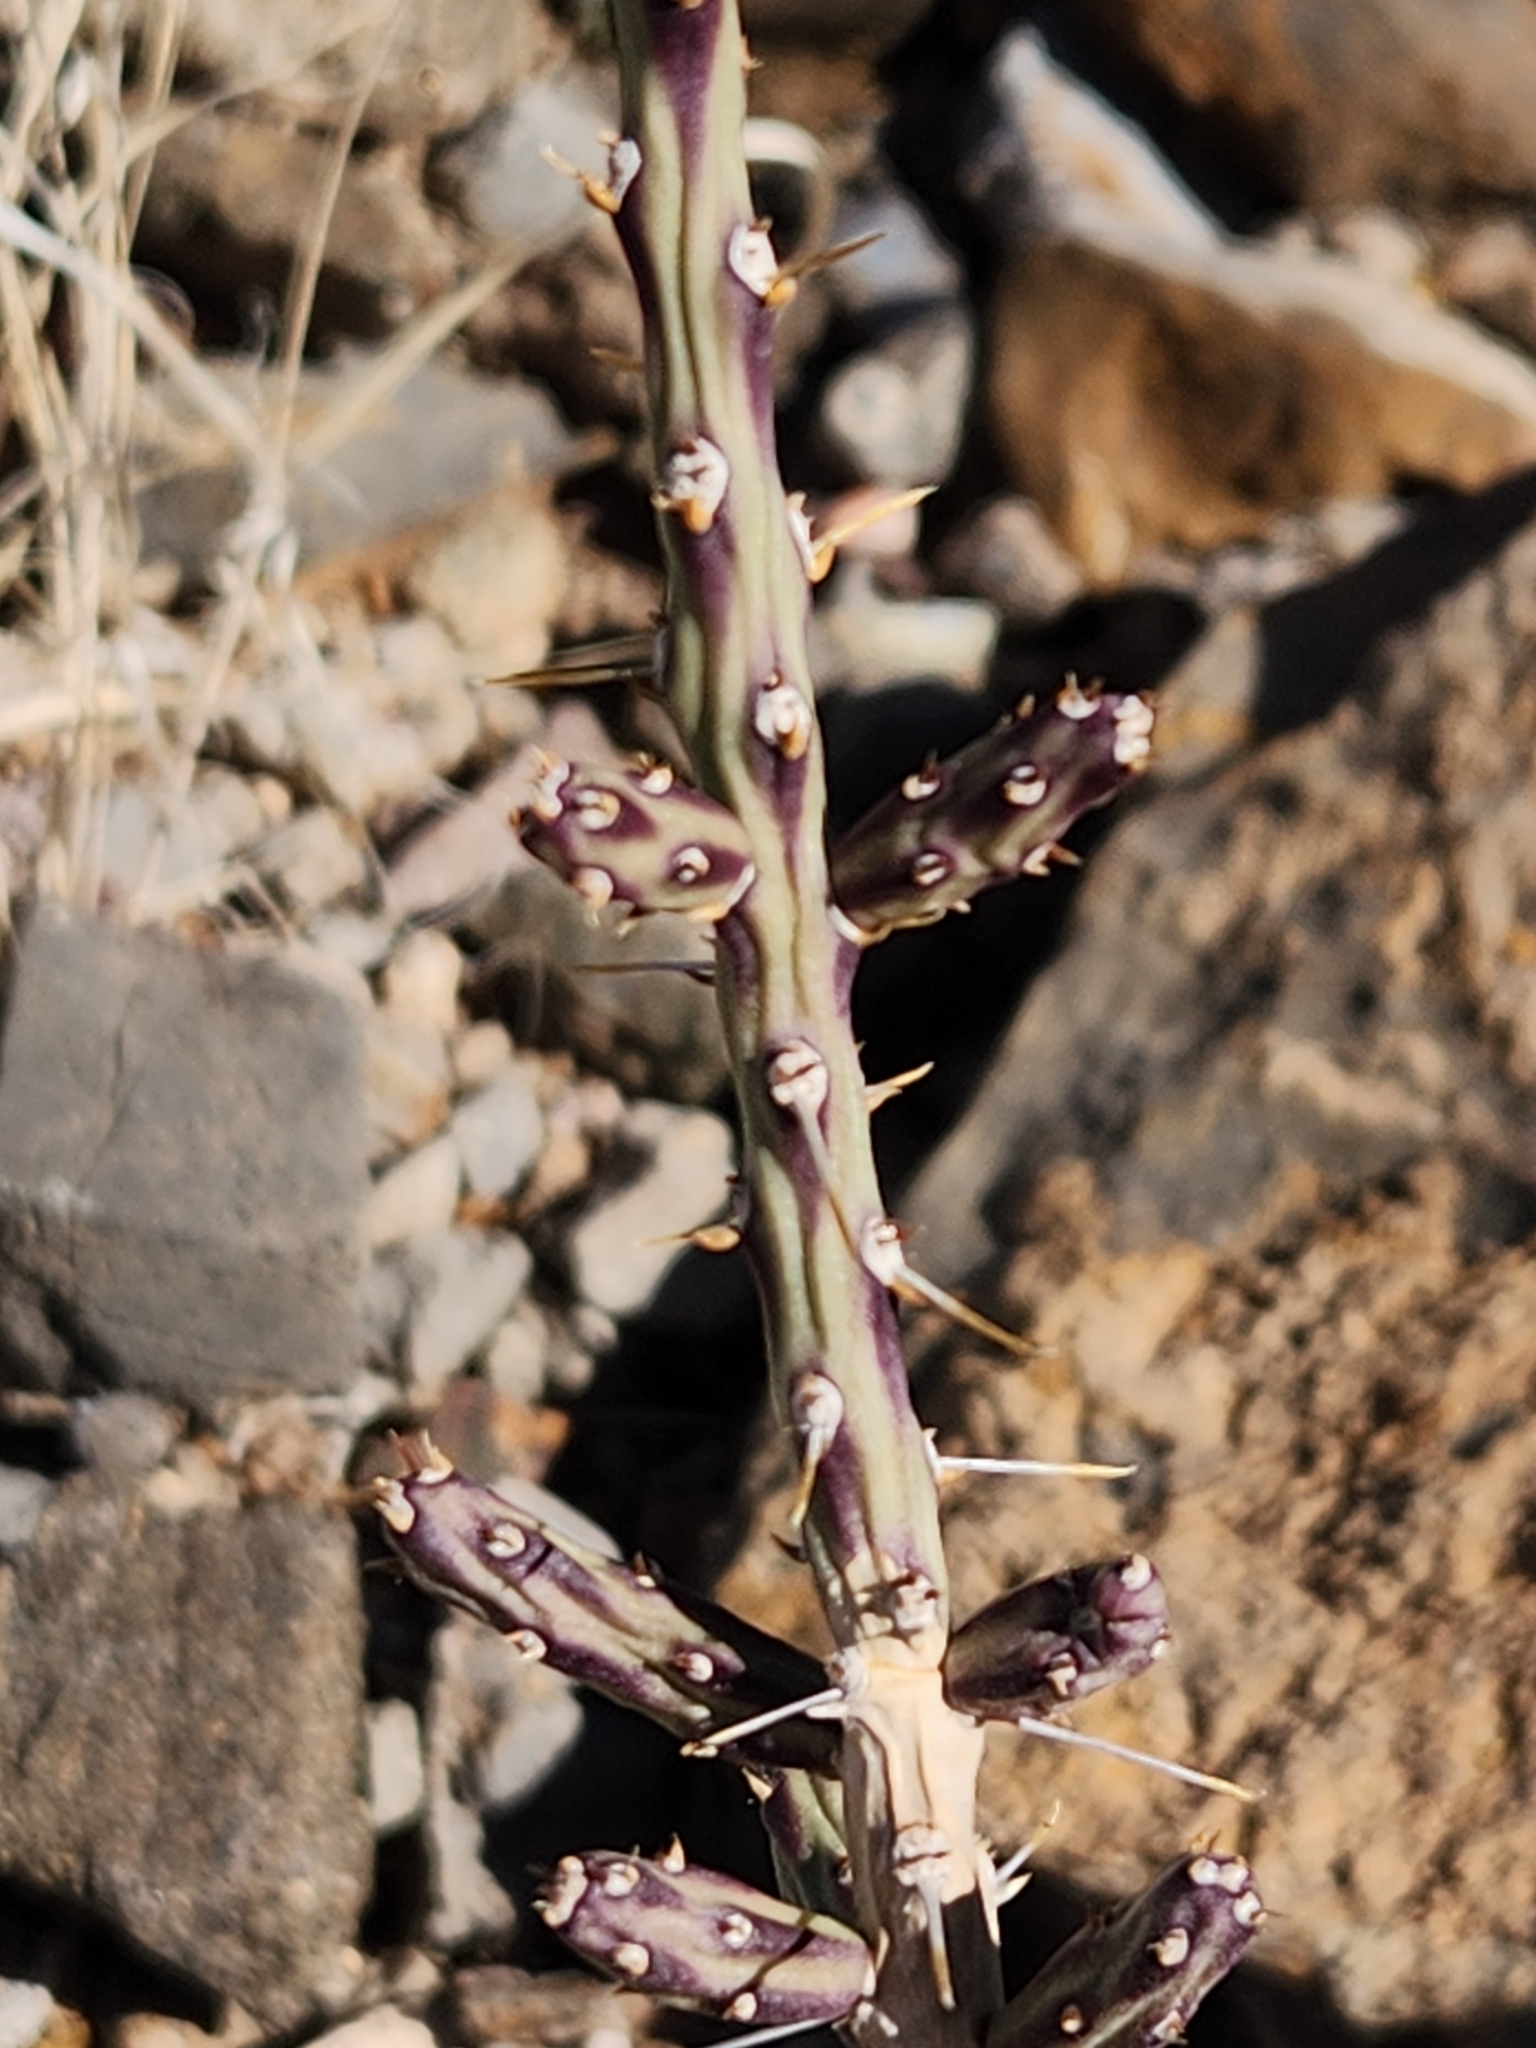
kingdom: Plantae
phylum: Tracheophyta
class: Magnoliopsida
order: Caryophyllales
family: Cactaceae
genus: Cylindropuntia
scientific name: Cylindropuntia leptocaulis
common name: Christmas cactus
